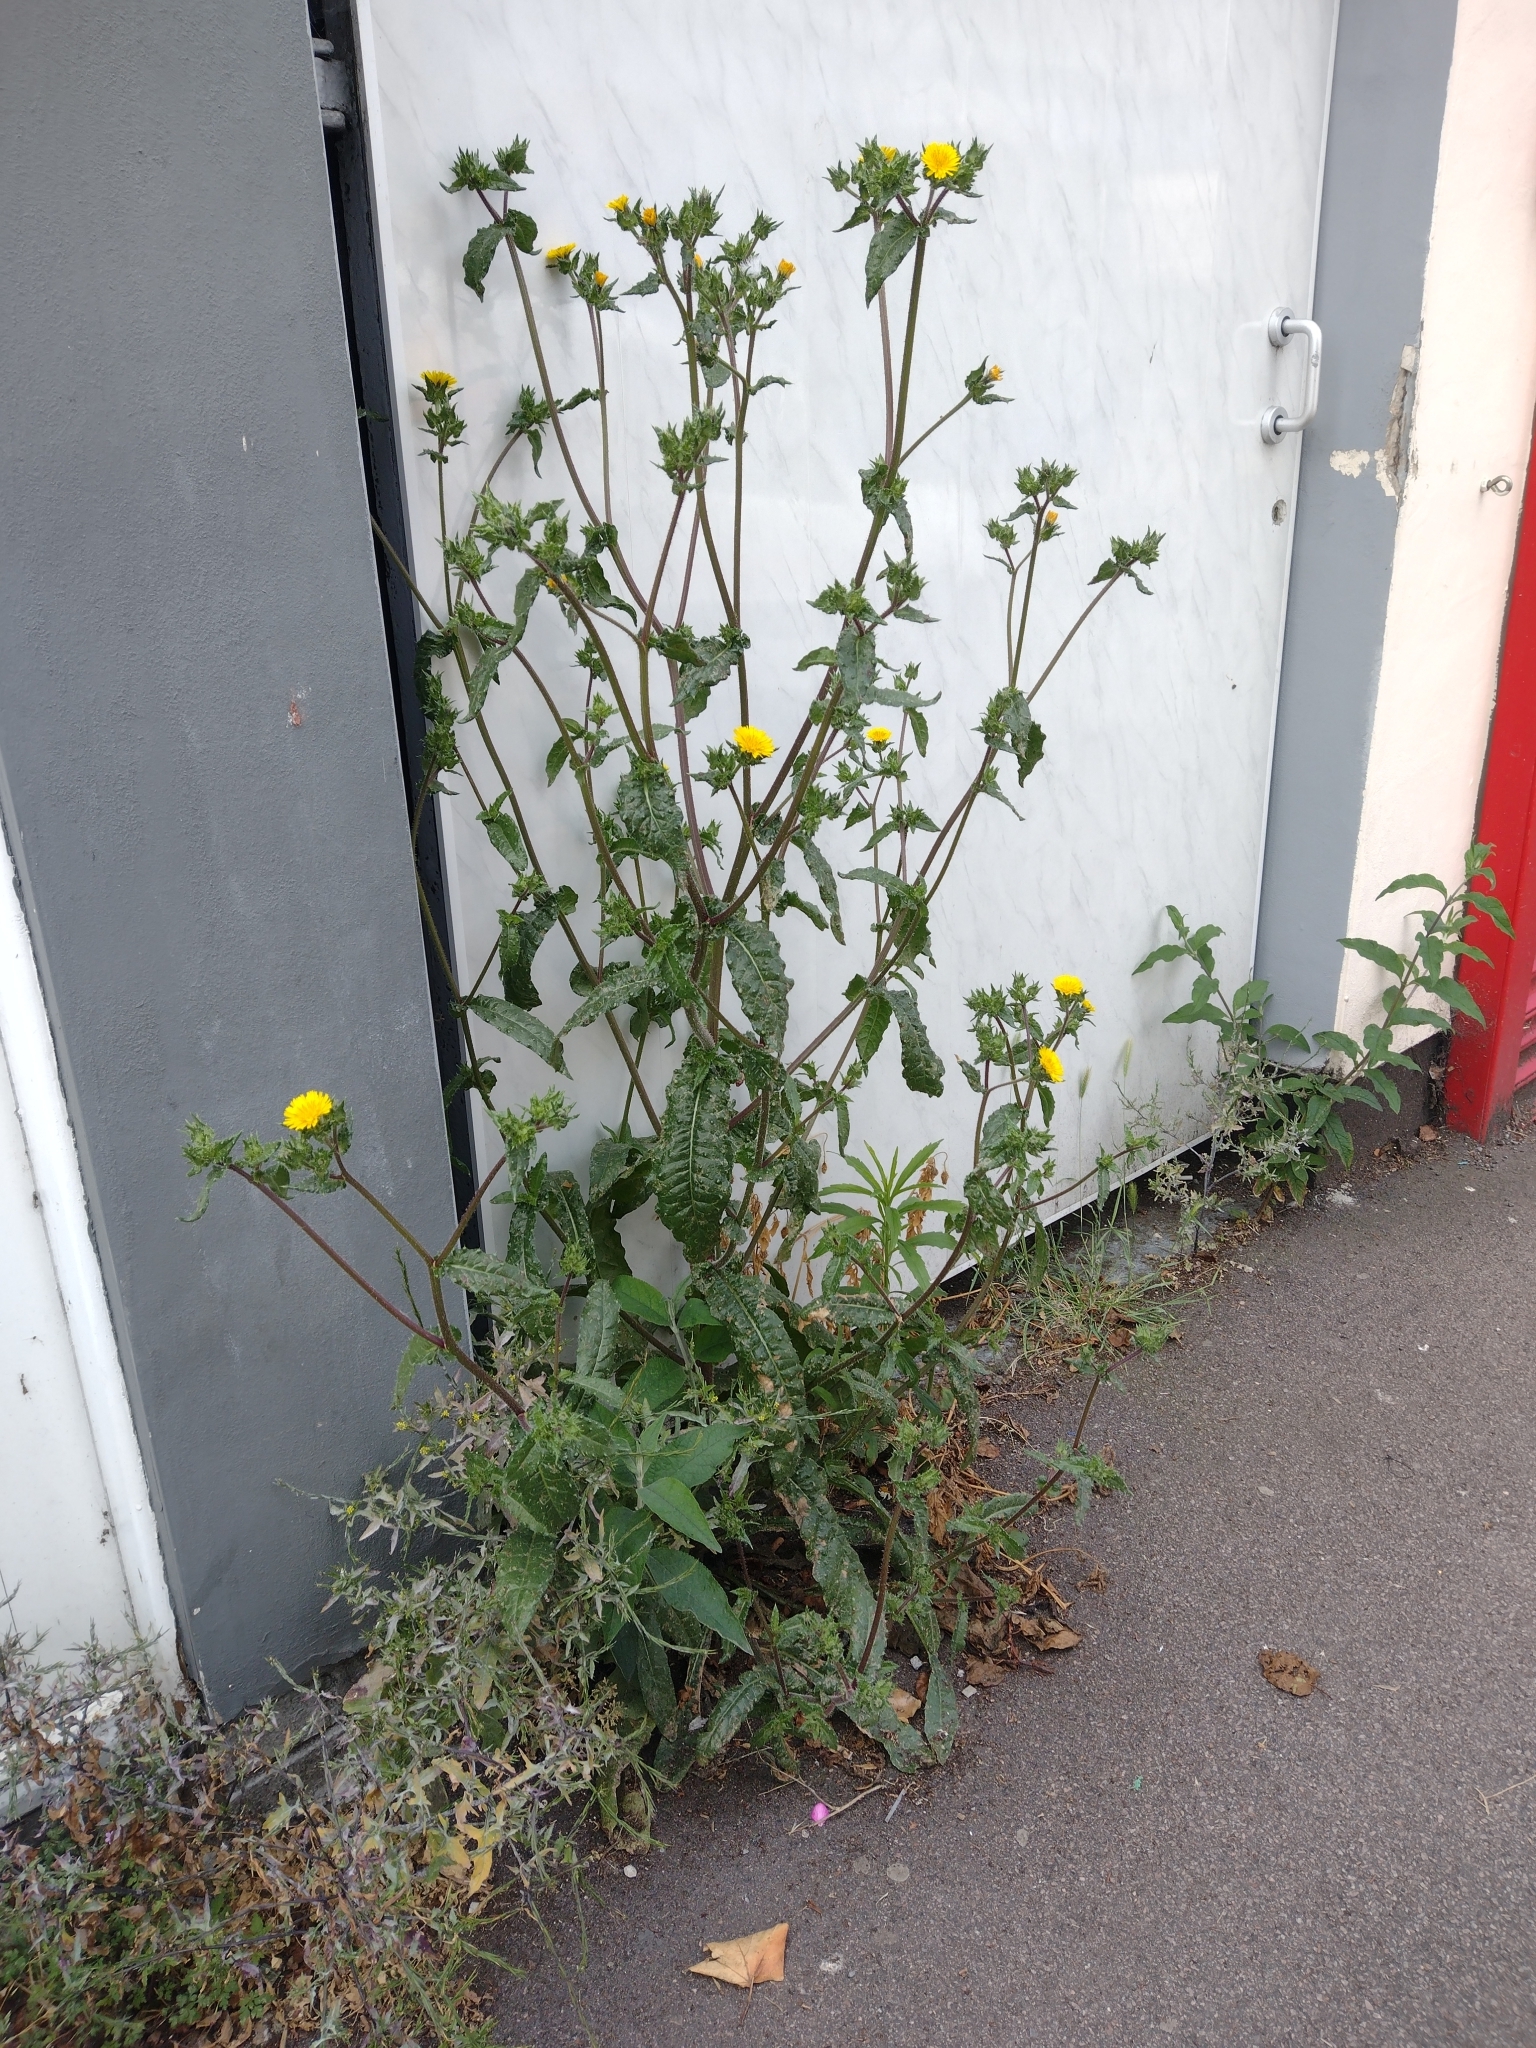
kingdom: Plantae
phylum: Tracheophyta
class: Magnoliopsida
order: Asterales
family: Asteraceae
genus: Helminthotheca
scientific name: Helminthotheca echioides
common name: Ox-tongue
